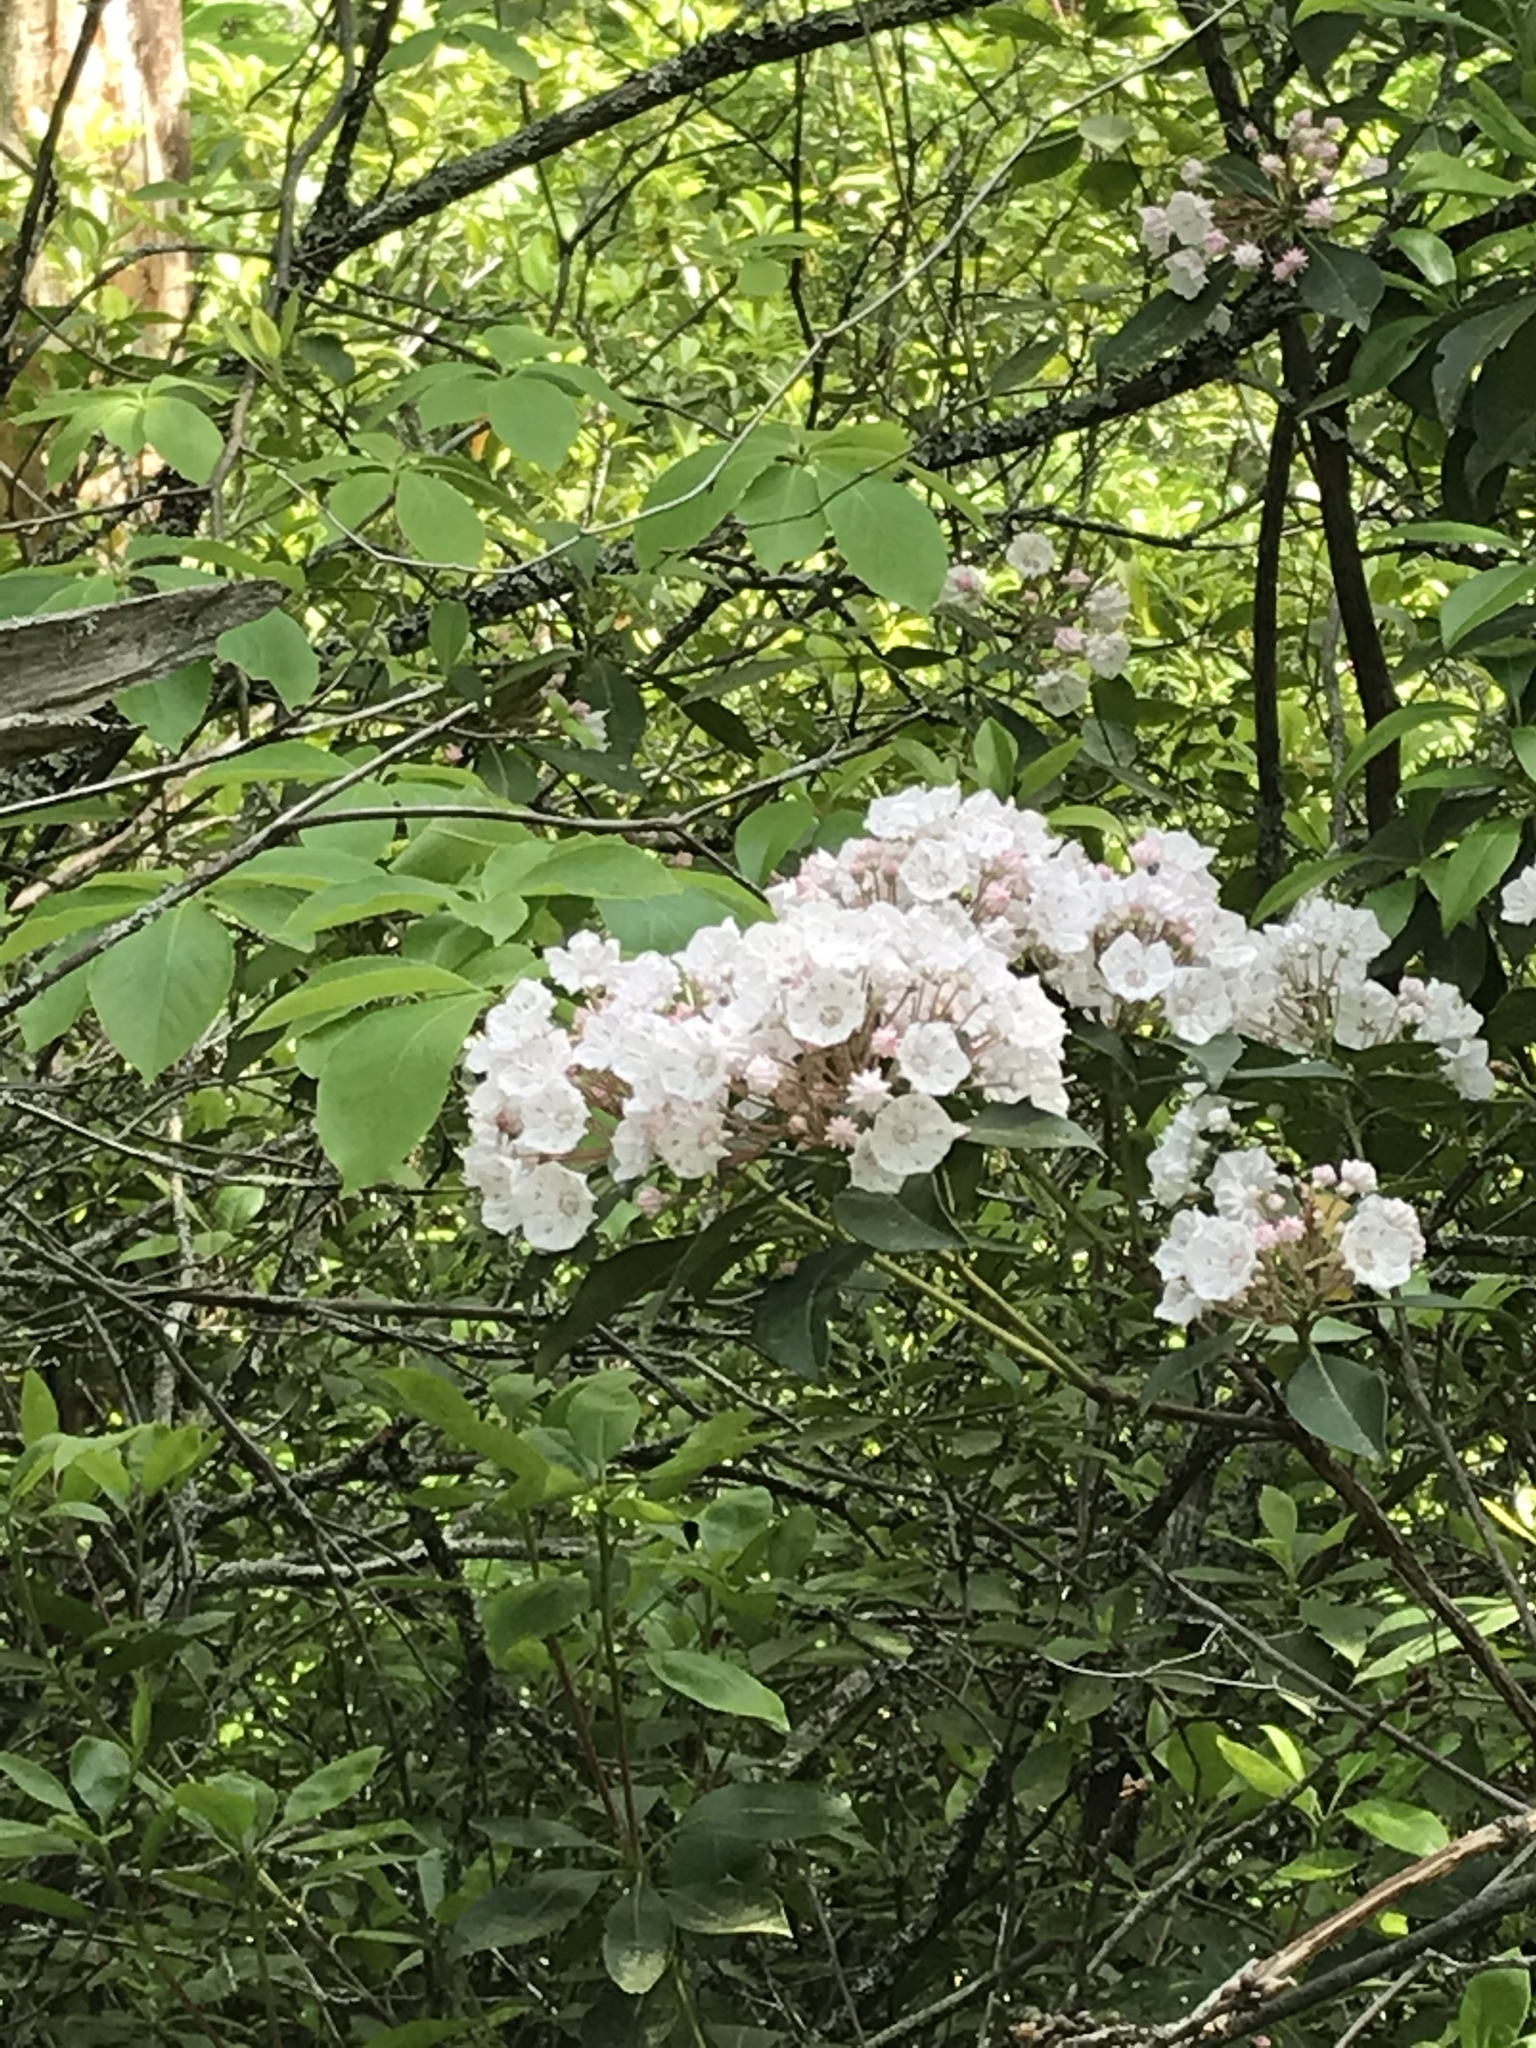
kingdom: Plantae
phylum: Tracheophyta
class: Magnoliopsida
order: Ericales
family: Ericaceae
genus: Kalmia
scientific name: Kalmia latifolia
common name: Mountain-laurel
